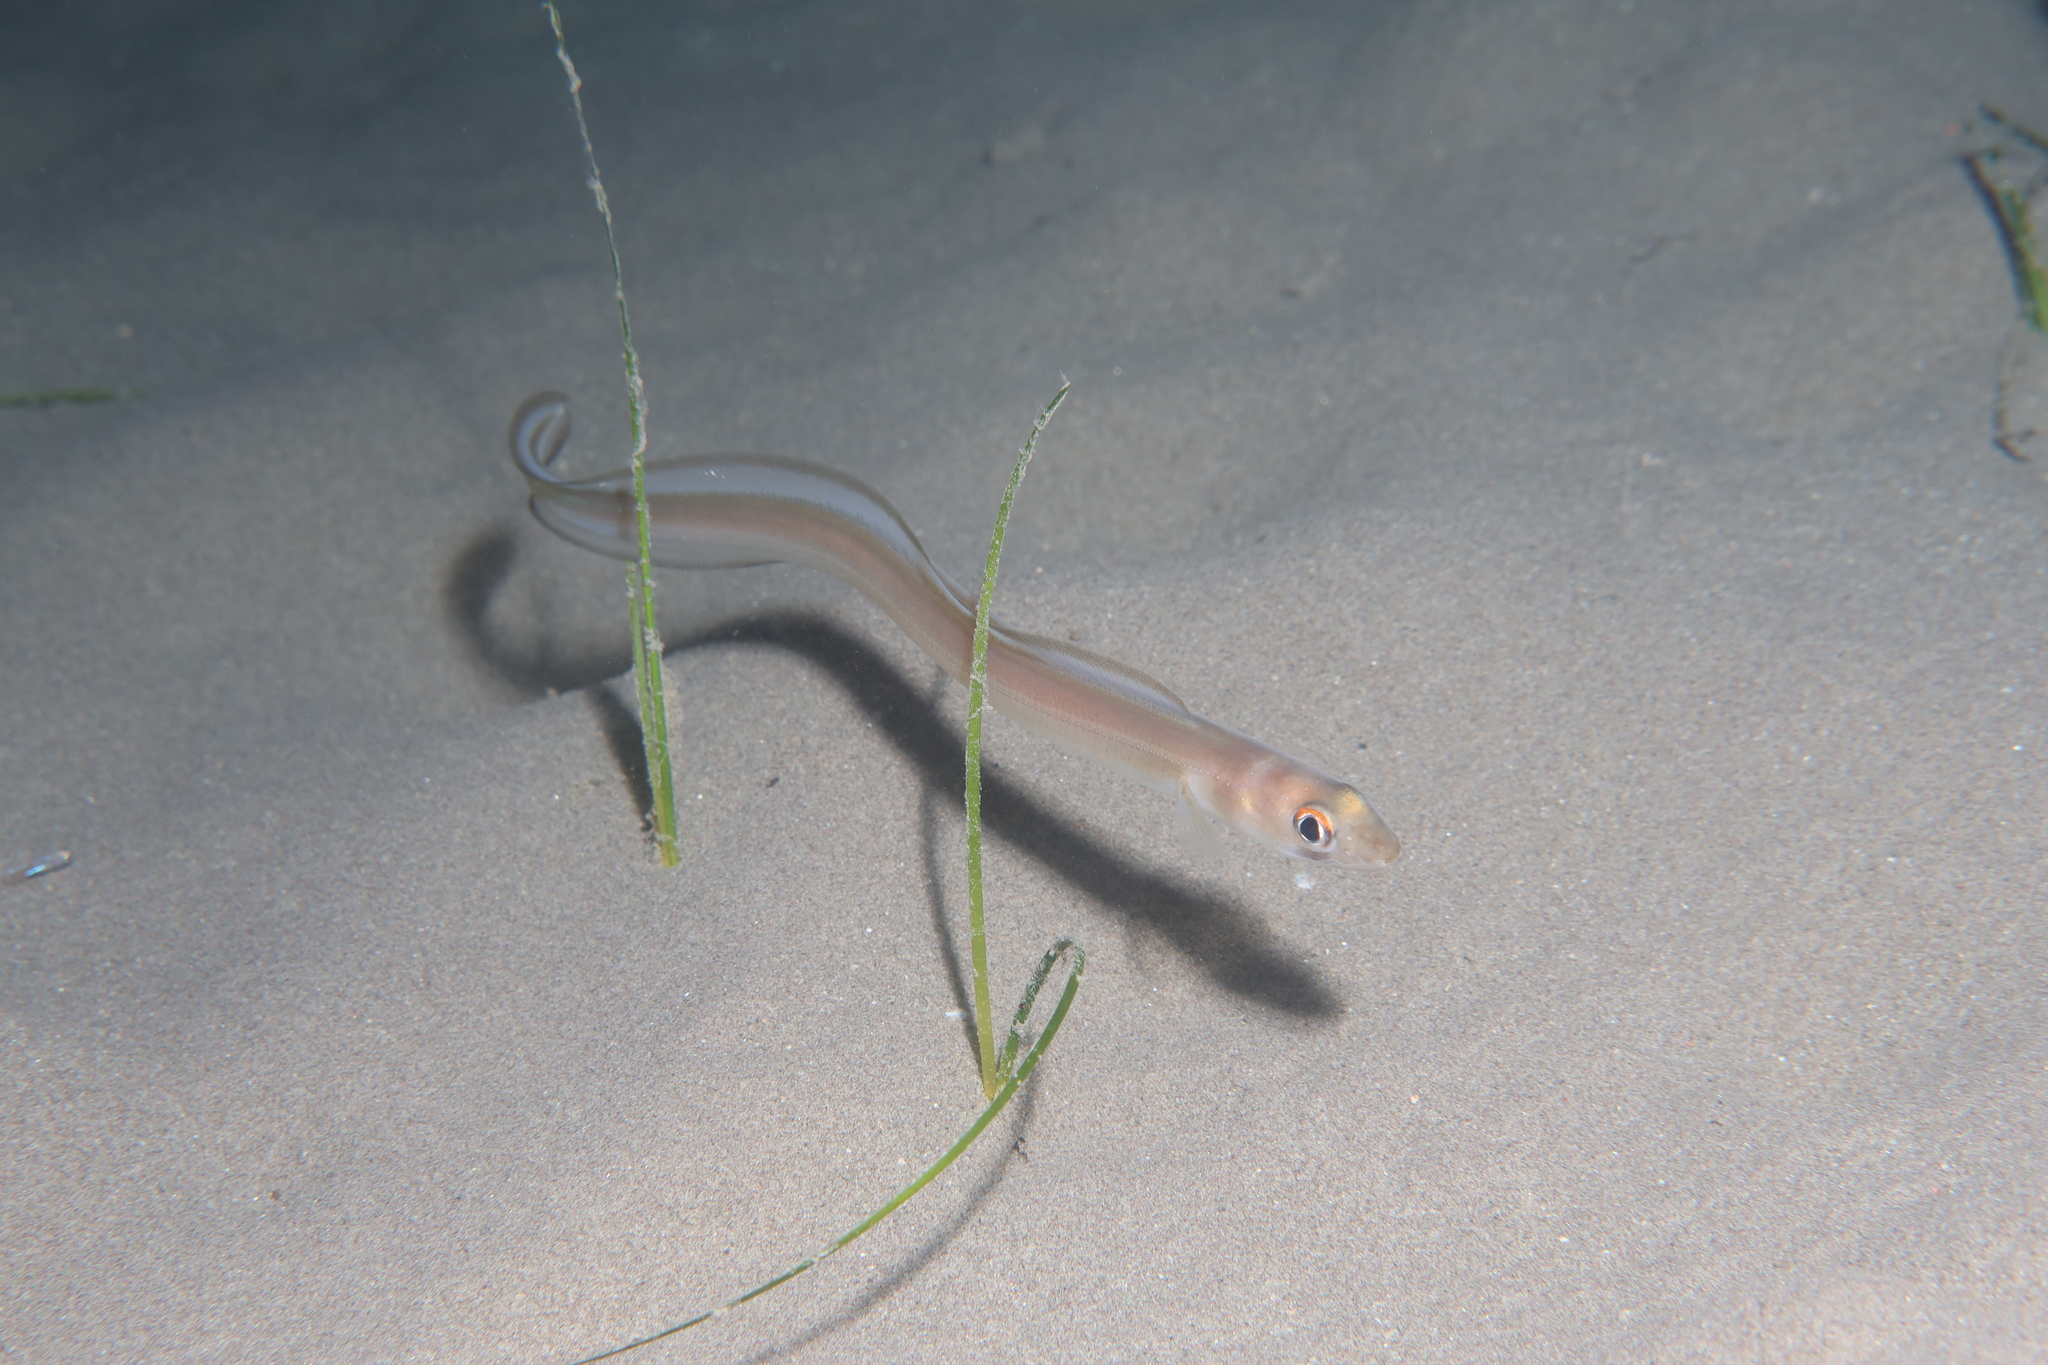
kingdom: Animalia
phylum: Chordata
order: Anguilliformes
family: Congridae
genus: Ariosoma
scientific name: Ariosoma balearicum
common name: Bandtooth conger
